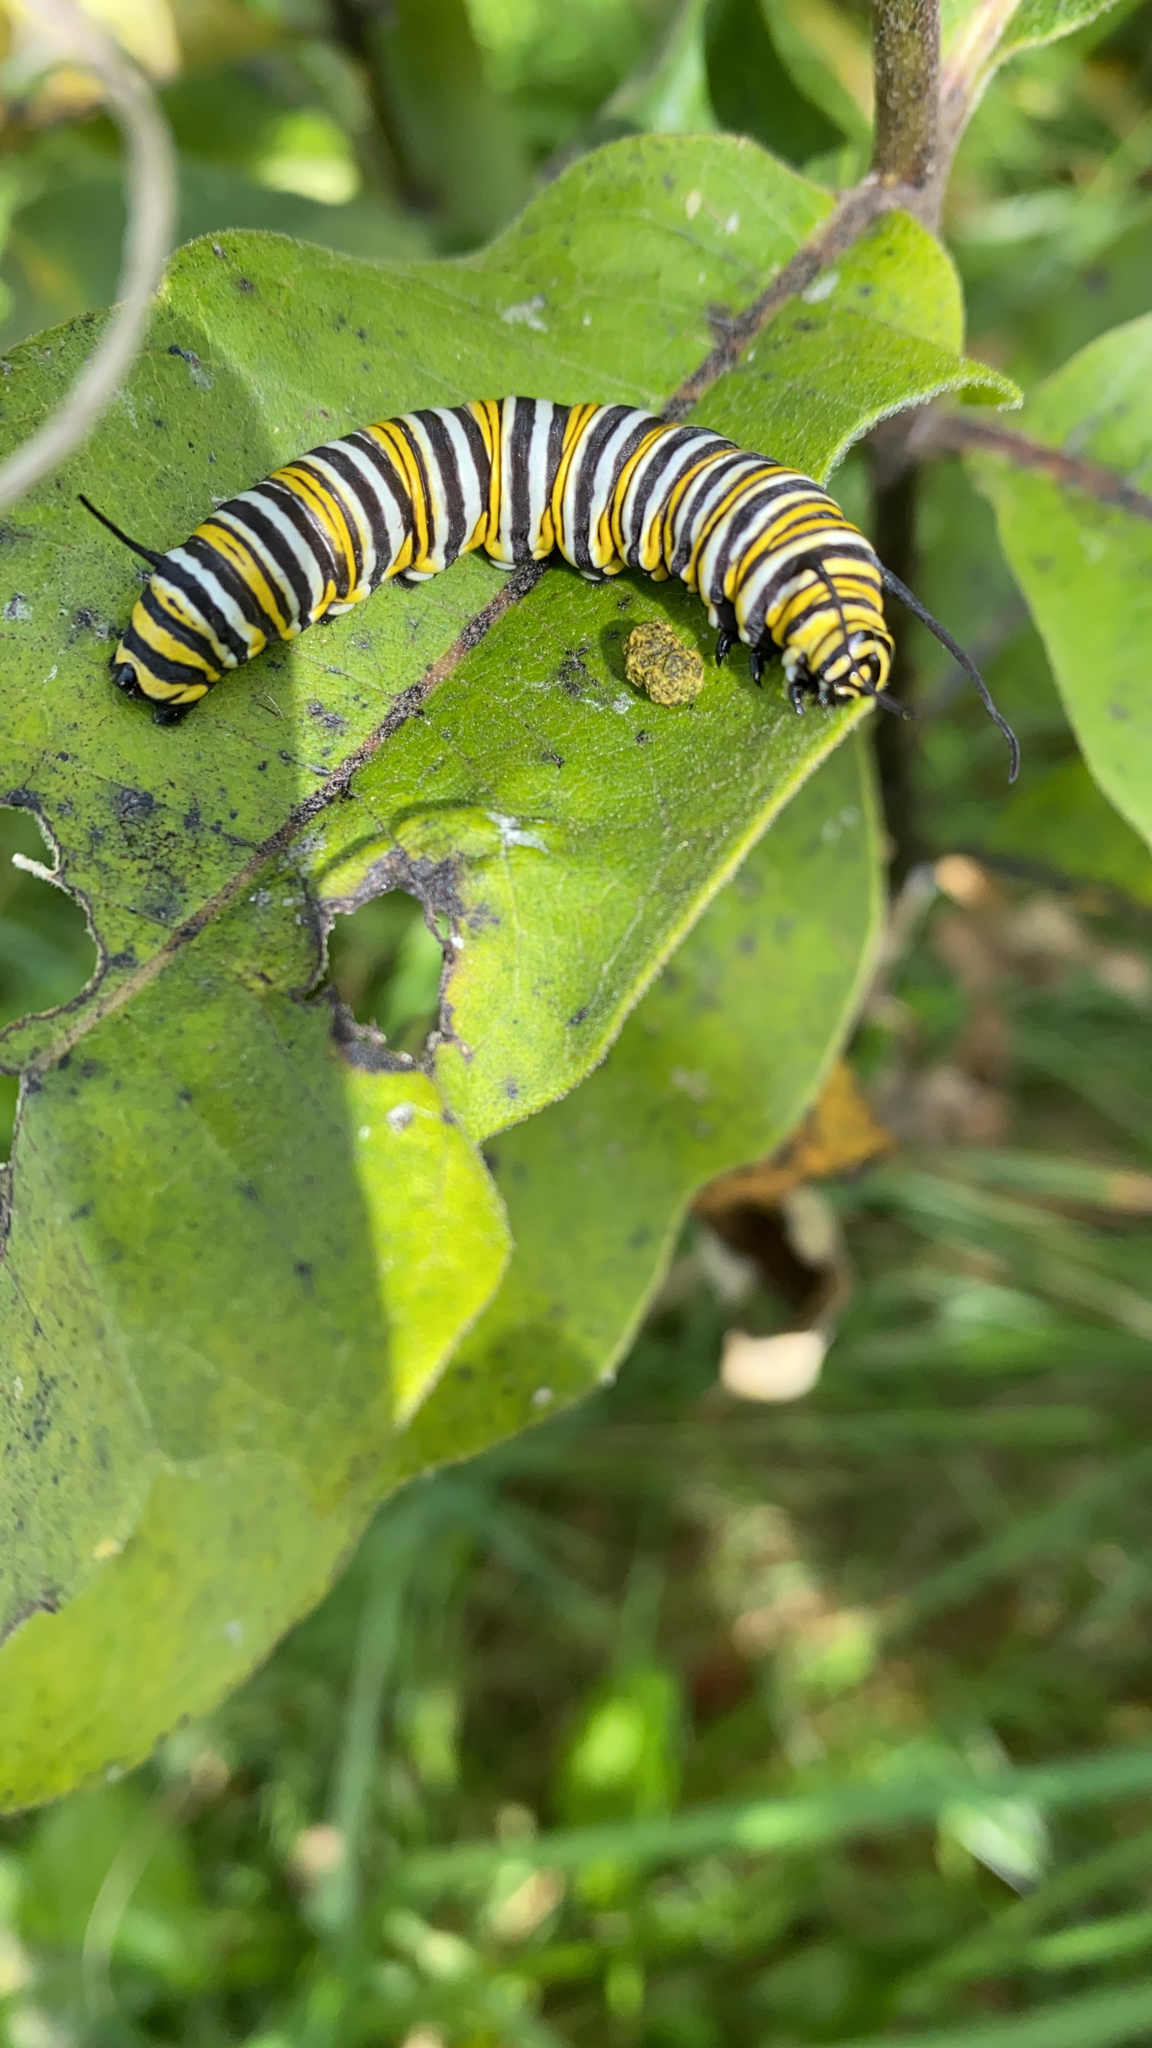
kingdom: Animalia
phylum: Arthropoda
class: Insecta
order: Lepidoptera
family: Nymphalidae
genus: Danaus
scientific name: Danaus plexippus
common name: Monarch
